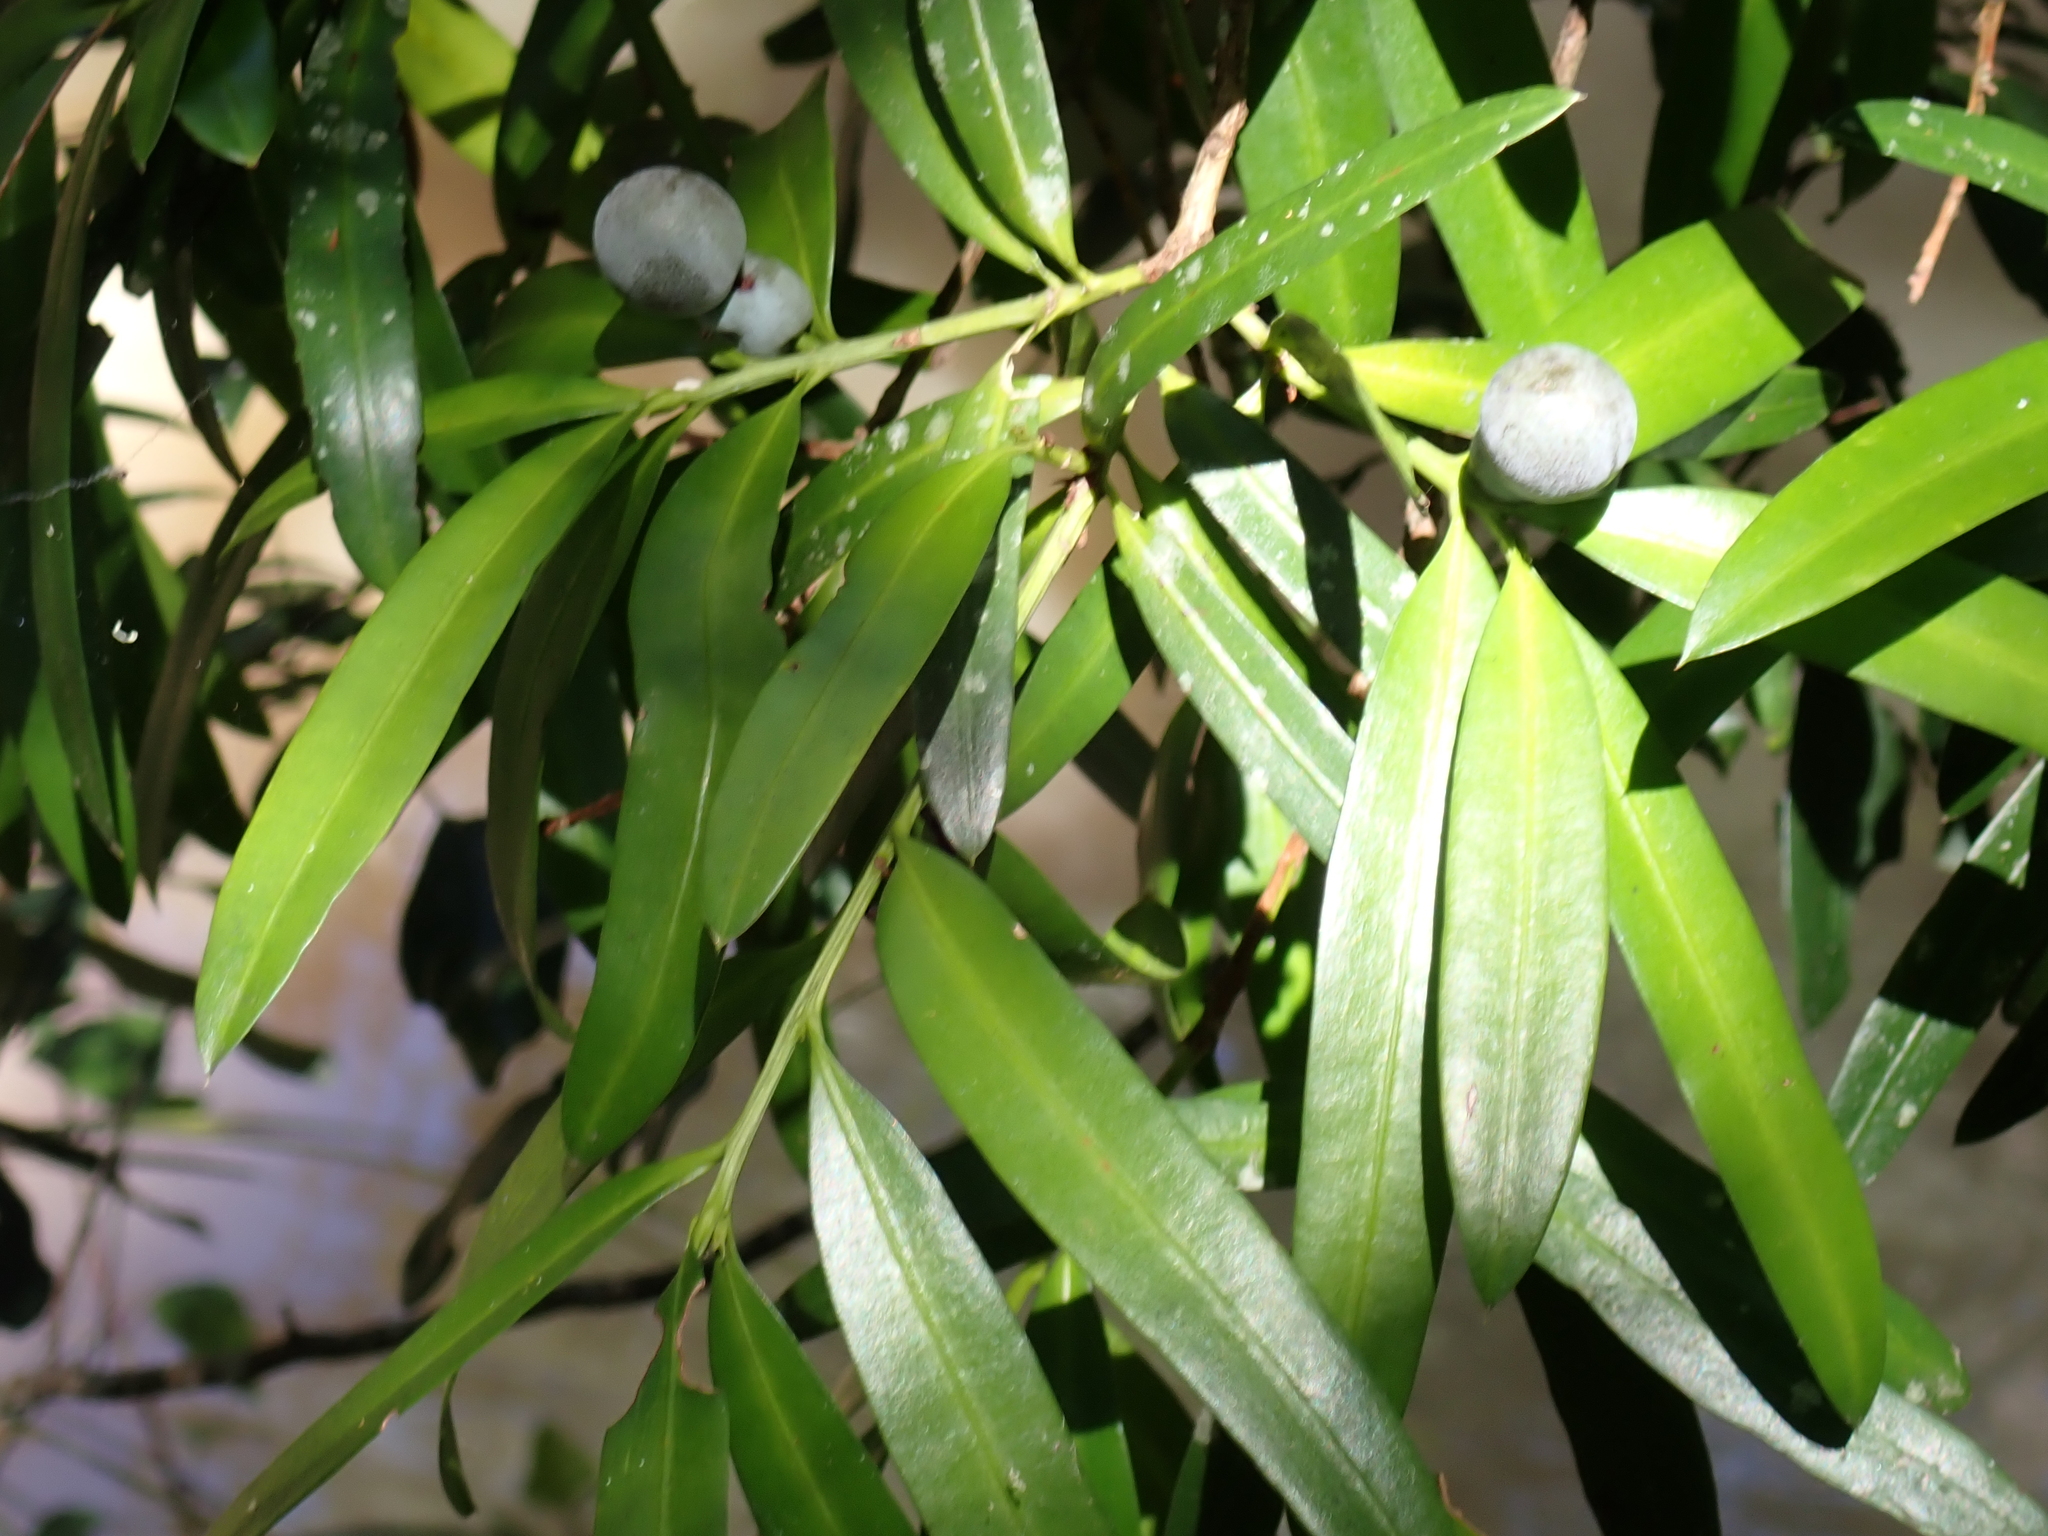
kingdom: Plantae
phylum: Tracheophyta
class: Pinopsida
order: Pinales
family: Podocarpaceae
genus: Podocarpus
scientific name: Podocarpus elatus
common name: Plum pine
